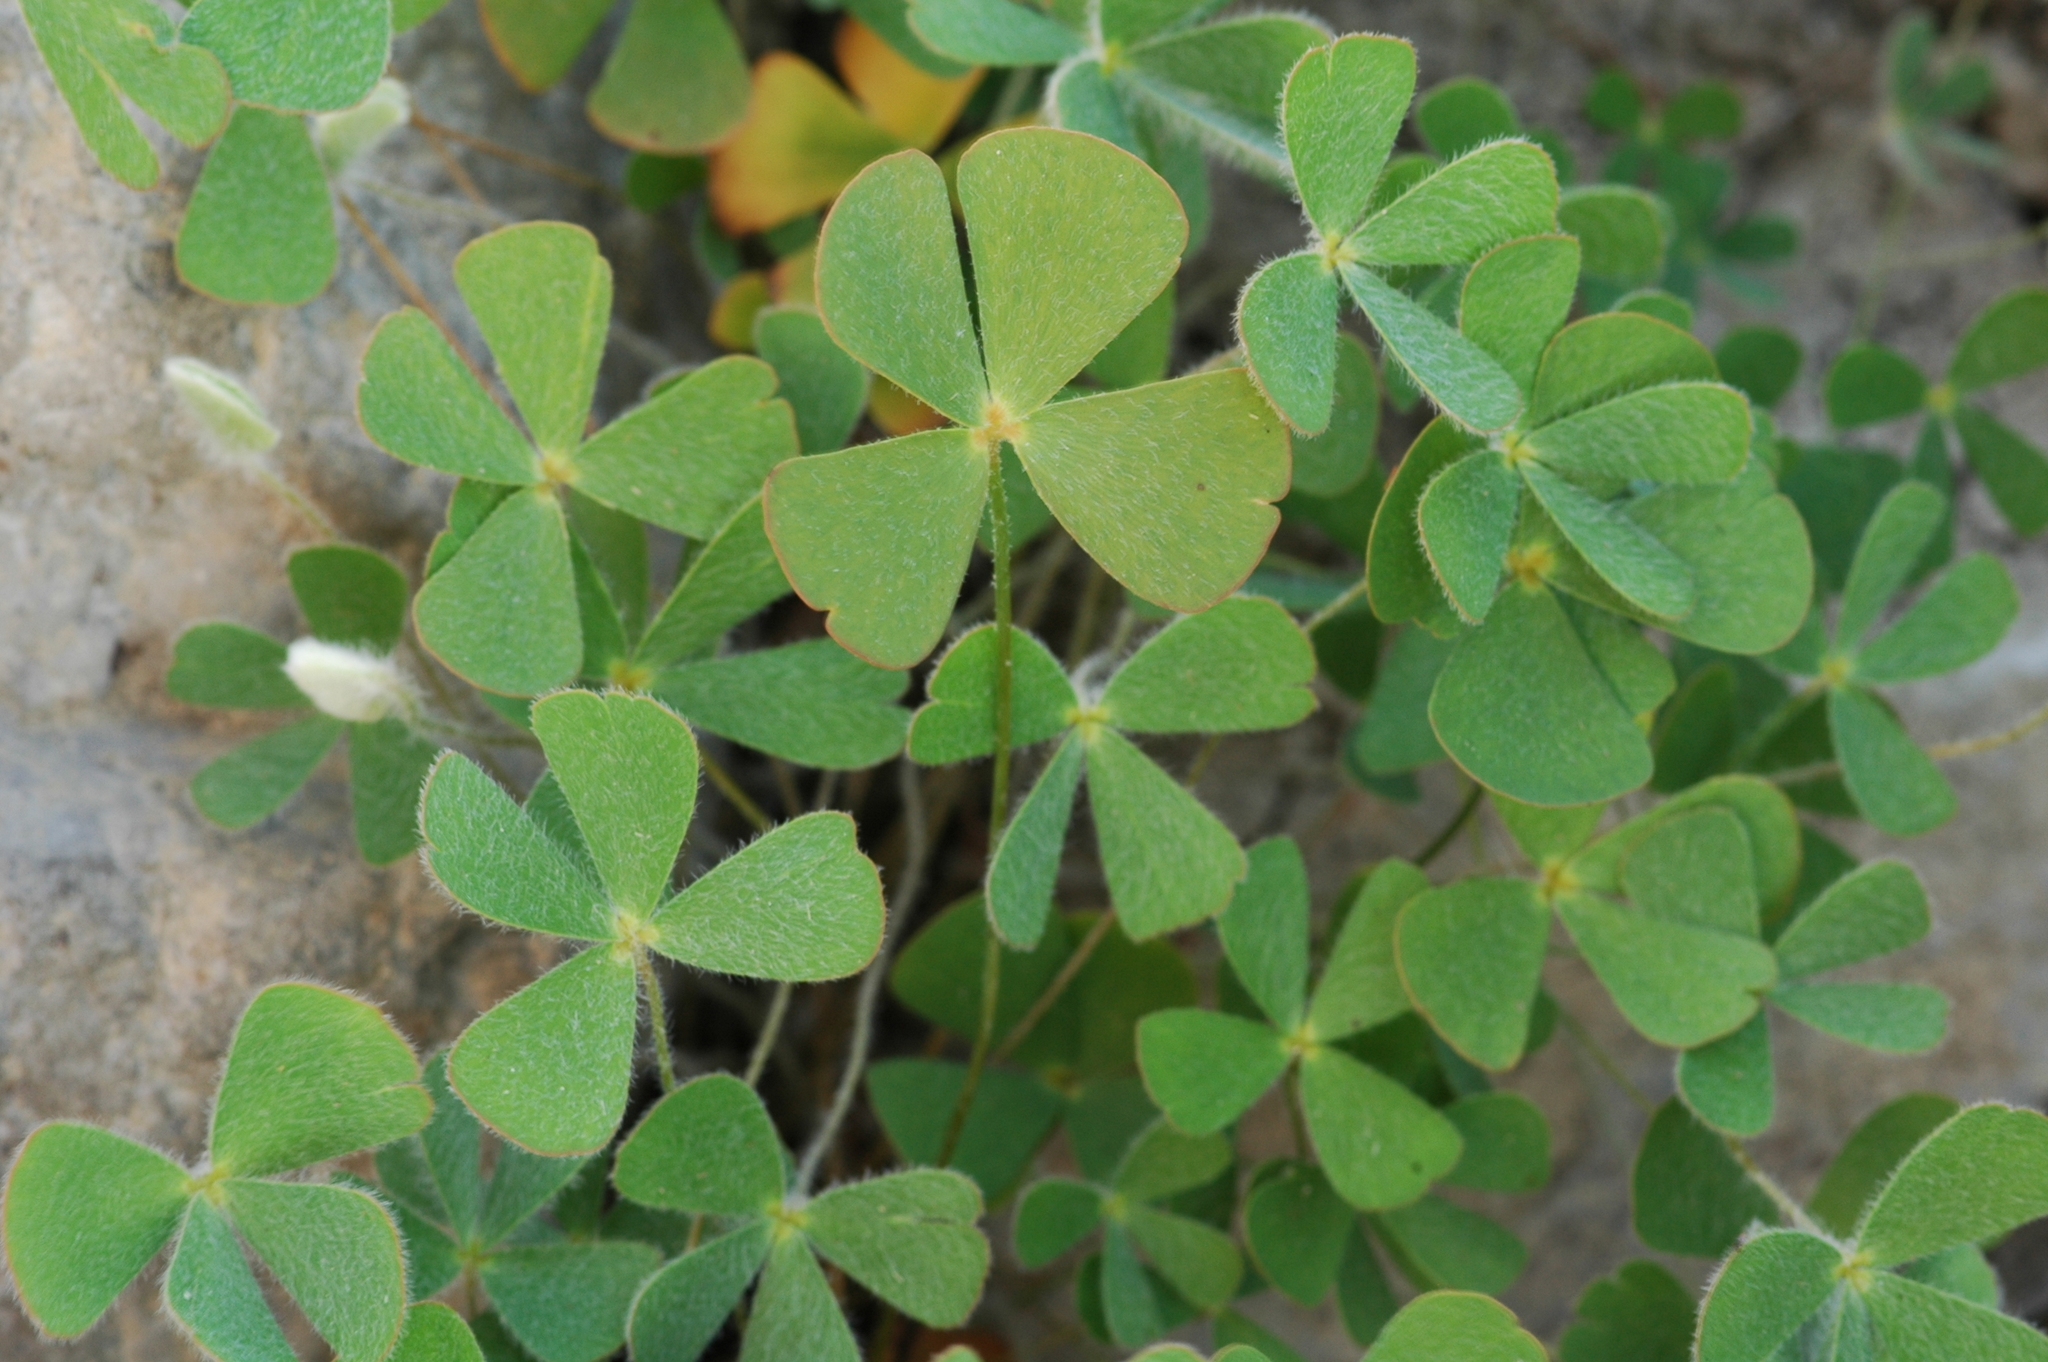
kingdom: Plantae
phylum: Tracheophyta
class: Polypodiopsida
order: Salviniales
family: Marsileaceae
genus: Marsilea
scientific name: Marsilea vestita
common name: Hooked-pepperwort
